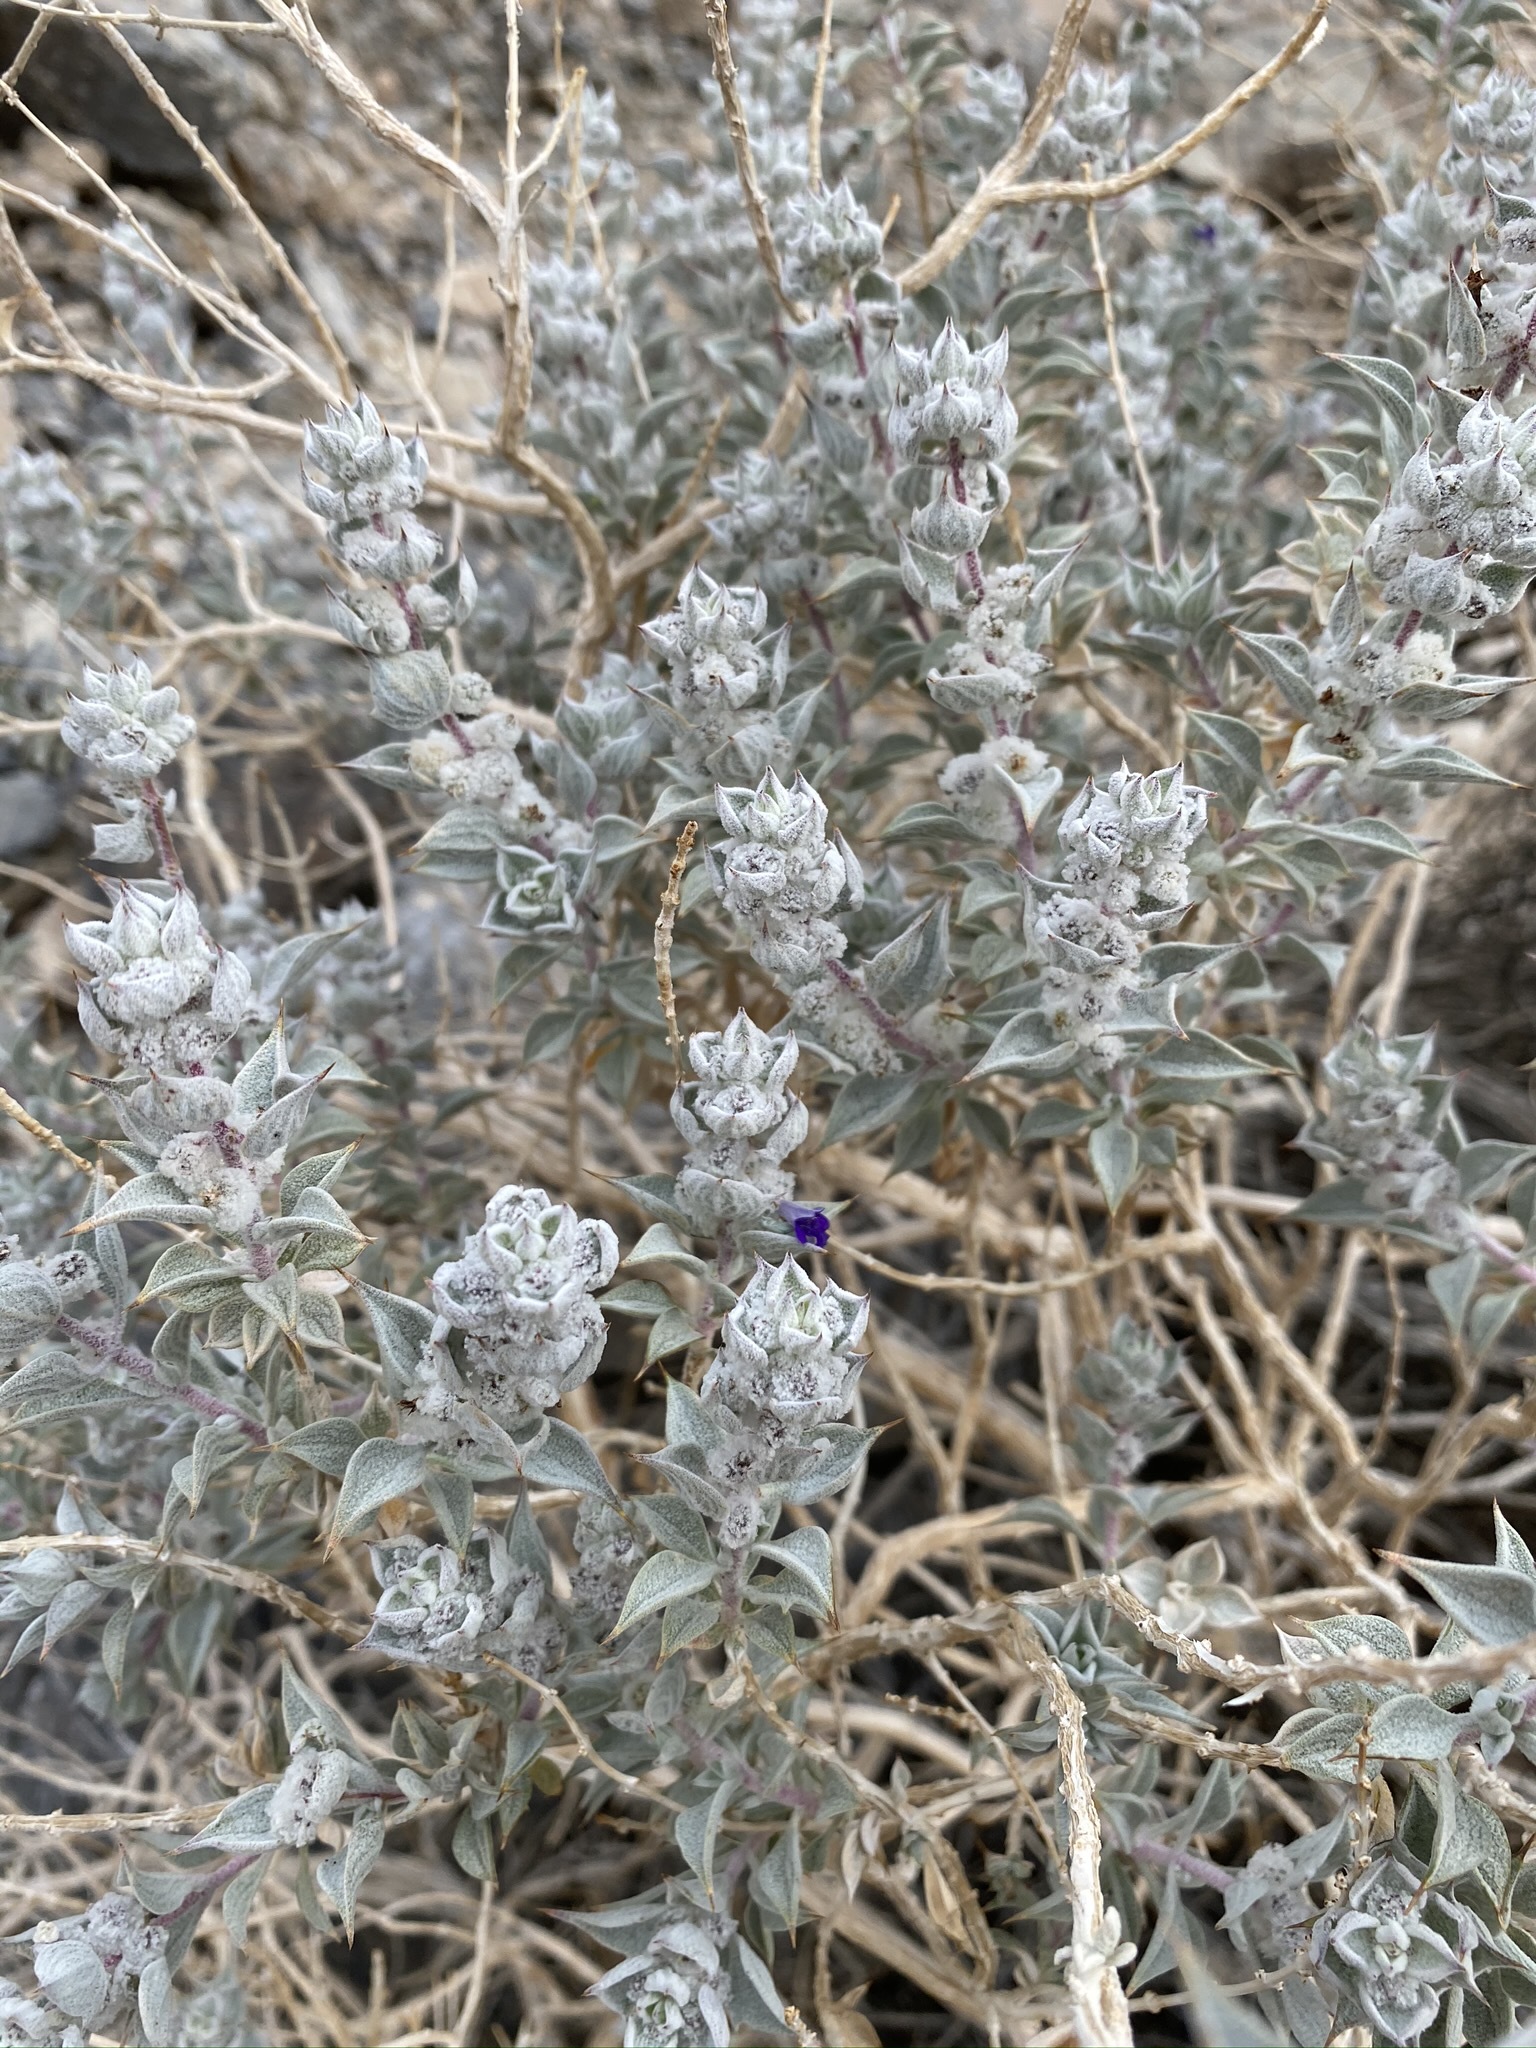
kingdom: Plantae
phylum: Tracheophyta
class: Magnoliopsida
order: Lamiales
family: Lamiaceae
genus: Salvia
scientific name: Salvia funerea
